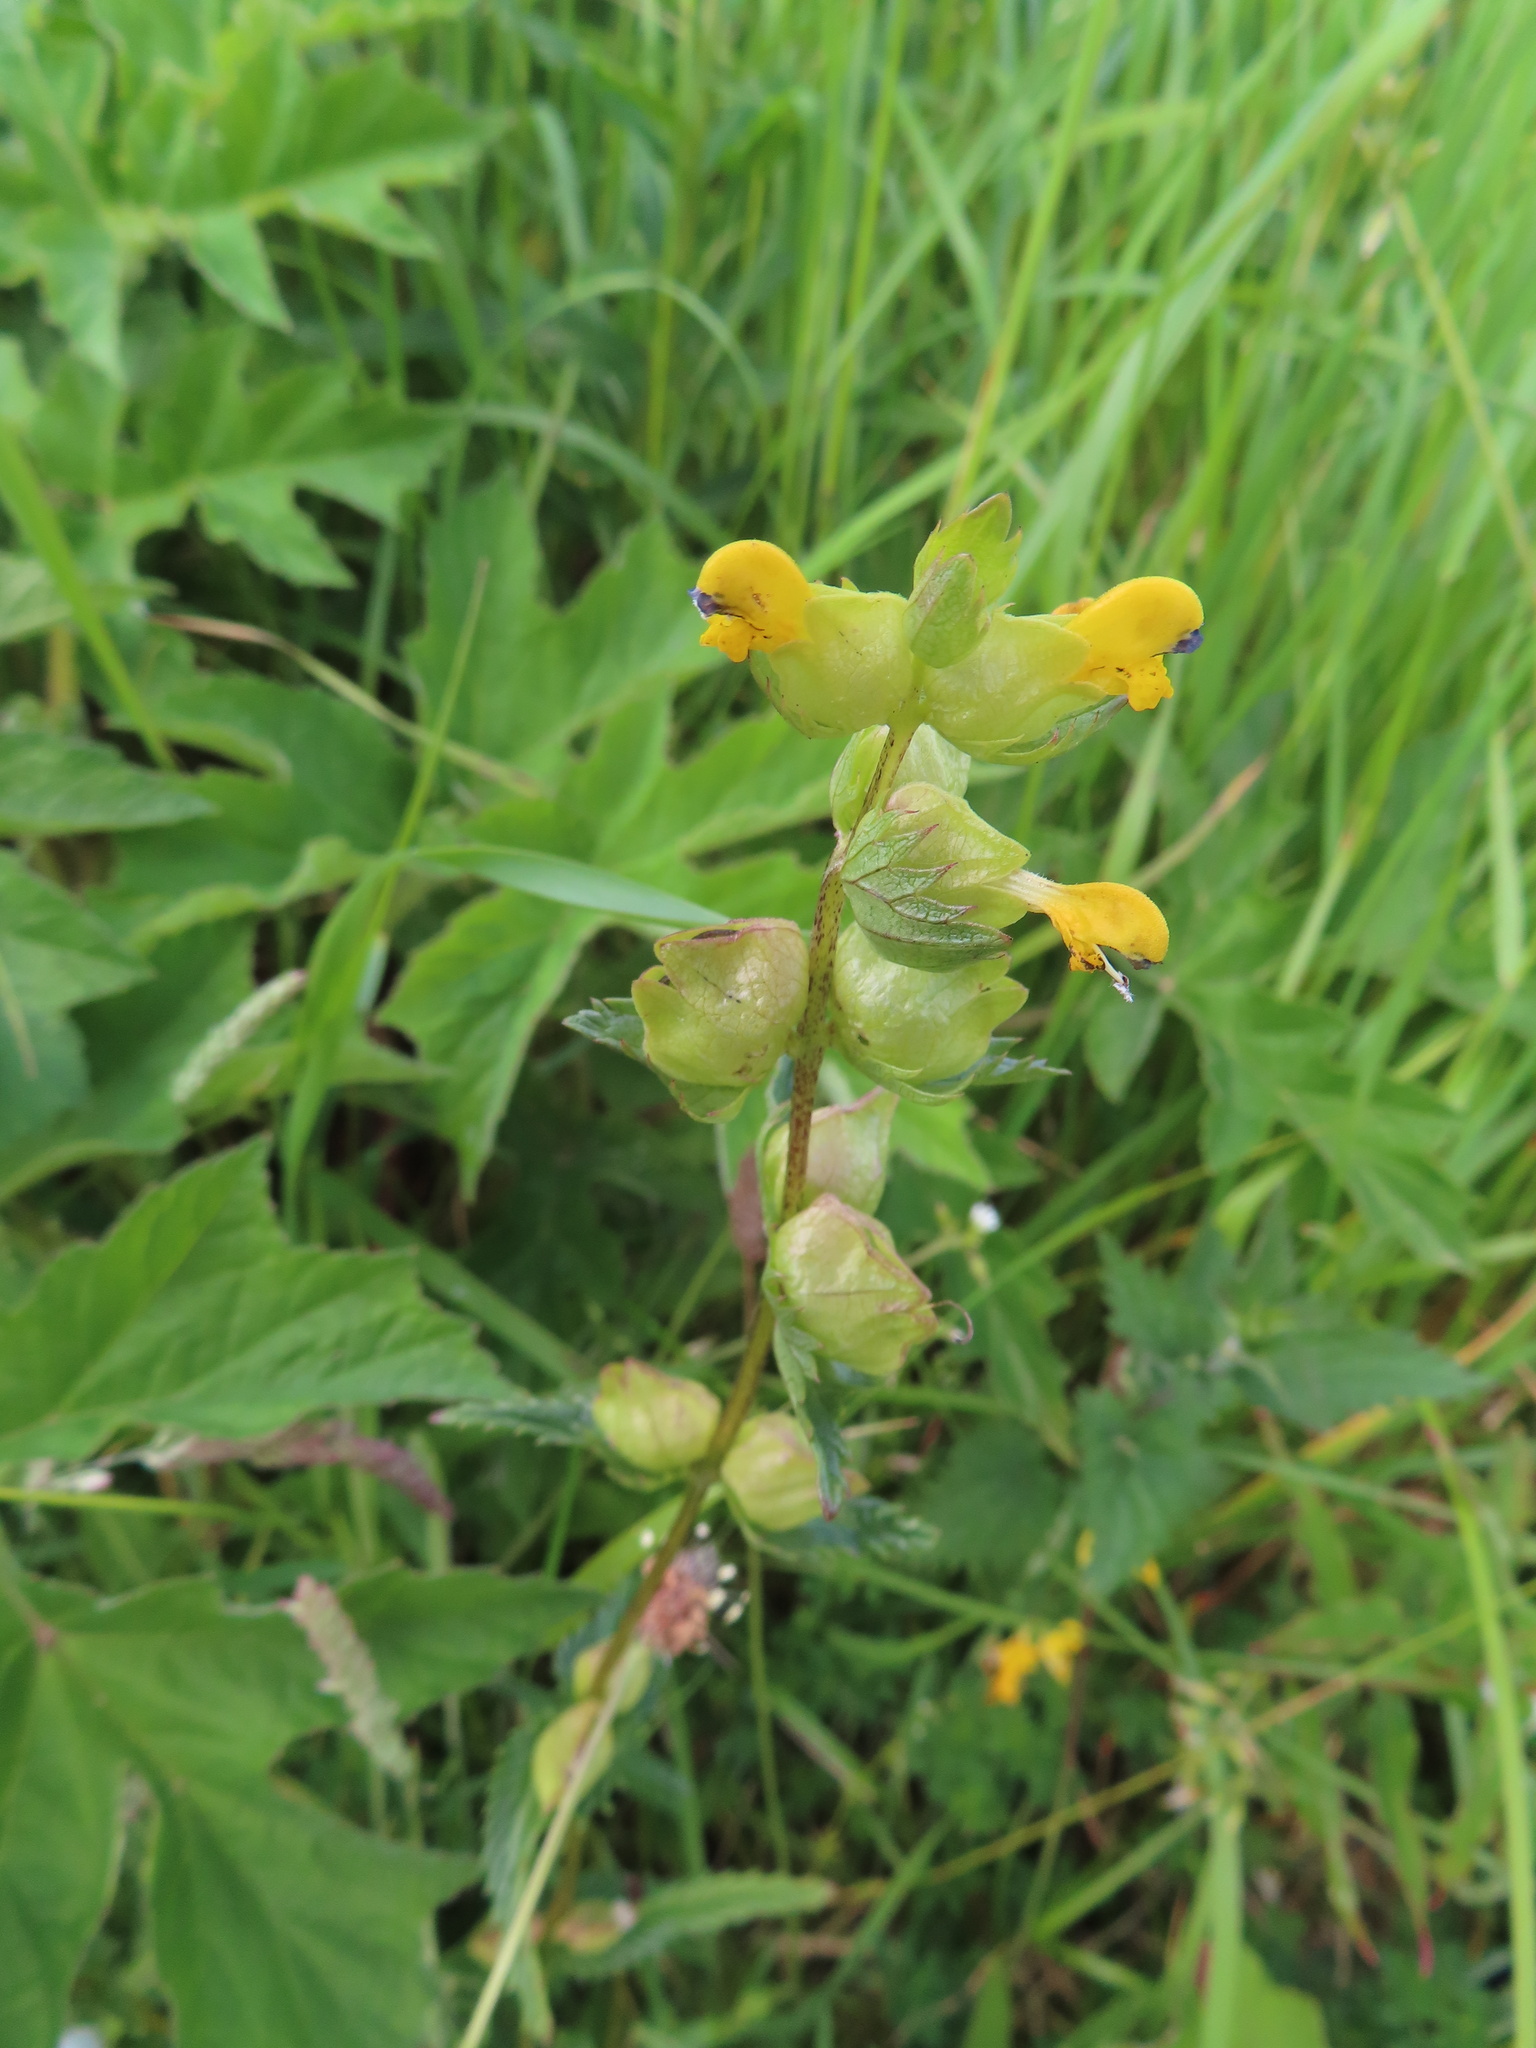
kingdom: Plantae
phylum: Tracheophyta
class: Magnoliopsida
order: Lamiales
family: Orobanchaceae
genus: Rhinanthus
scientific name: Rhinanthus minor
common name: Yellow-rattle
